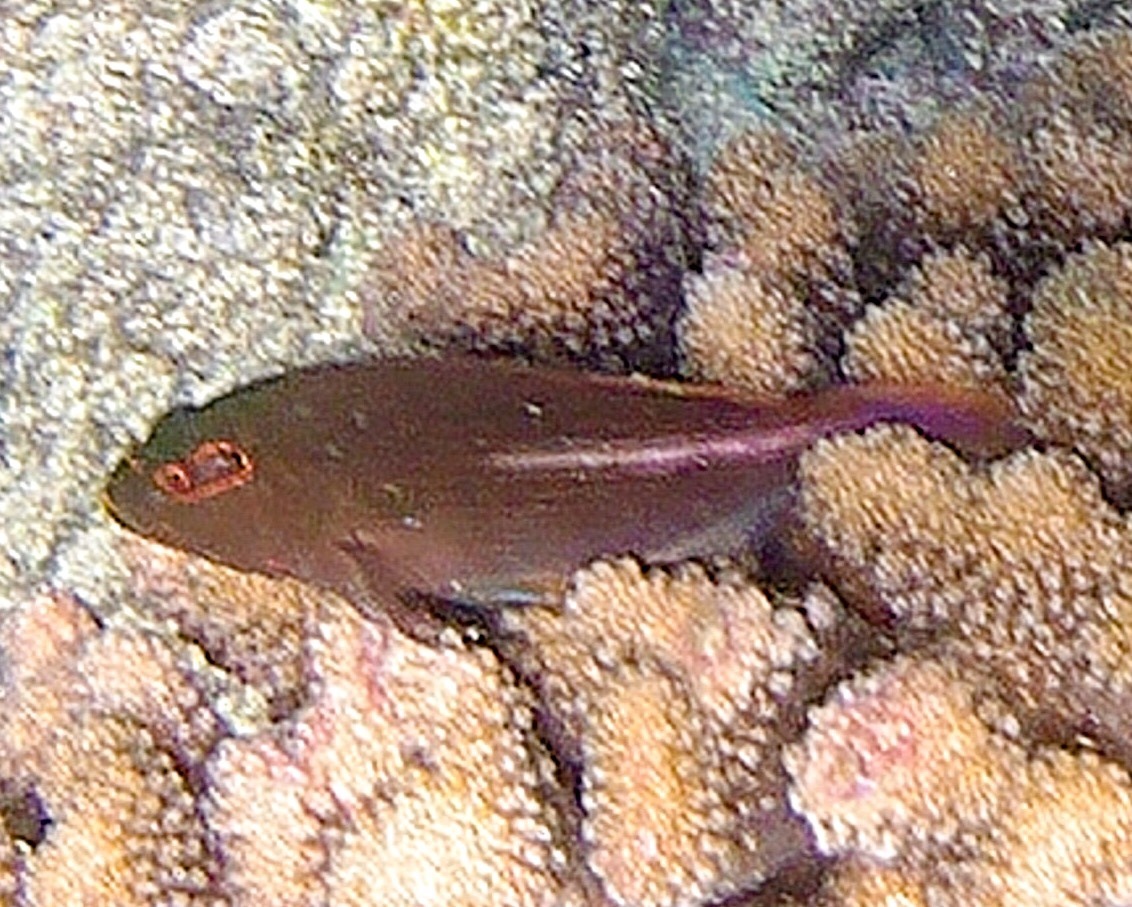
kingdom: Animalia
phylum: Chordata
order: Perciformes
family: Cirrhitidae
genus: Paracirrhites
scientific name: Paracirrhites arcatus
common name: Arc-eye hawkfish
